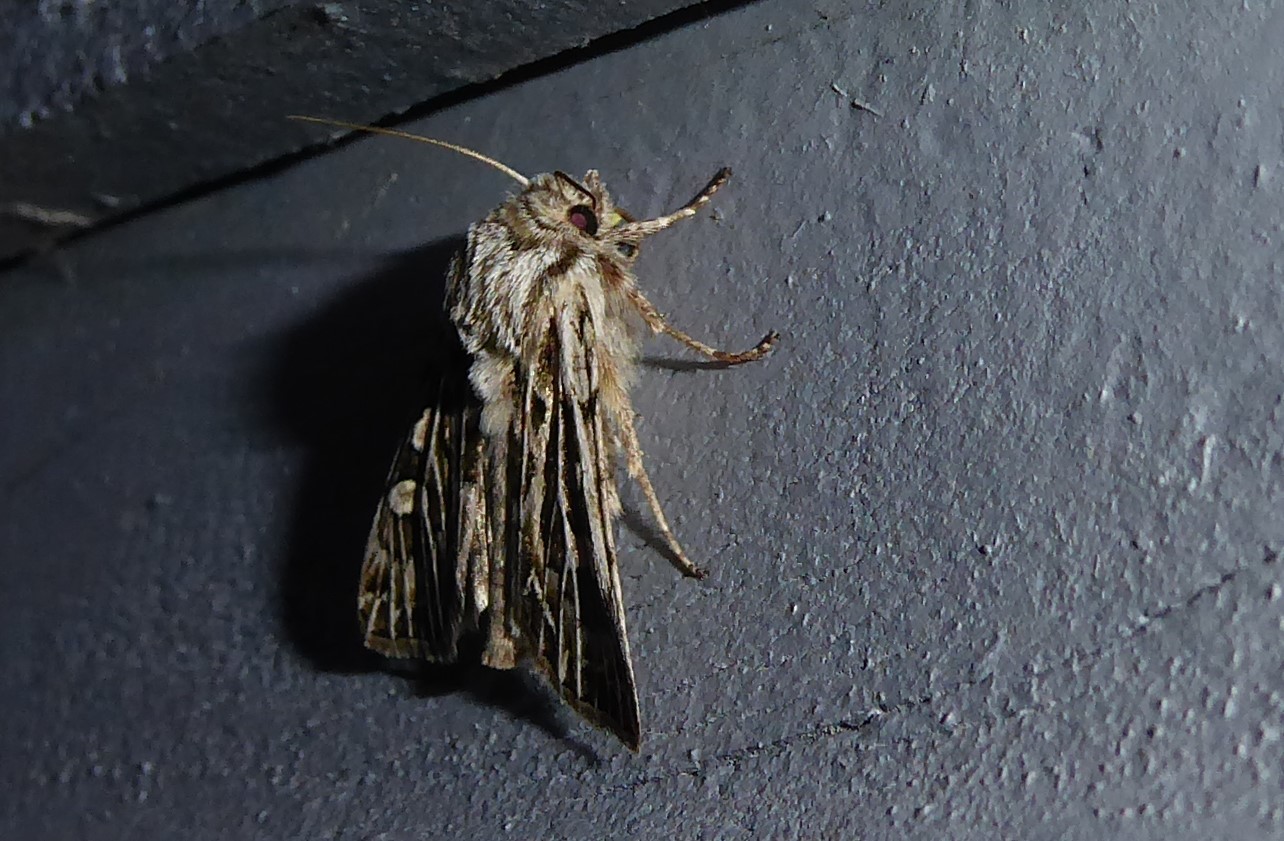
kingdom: Animalia
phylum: Arthropoda
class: Insecta
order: Lepidoptera
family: Noctuidae
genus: Ichneutica
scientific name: Ichneutica
